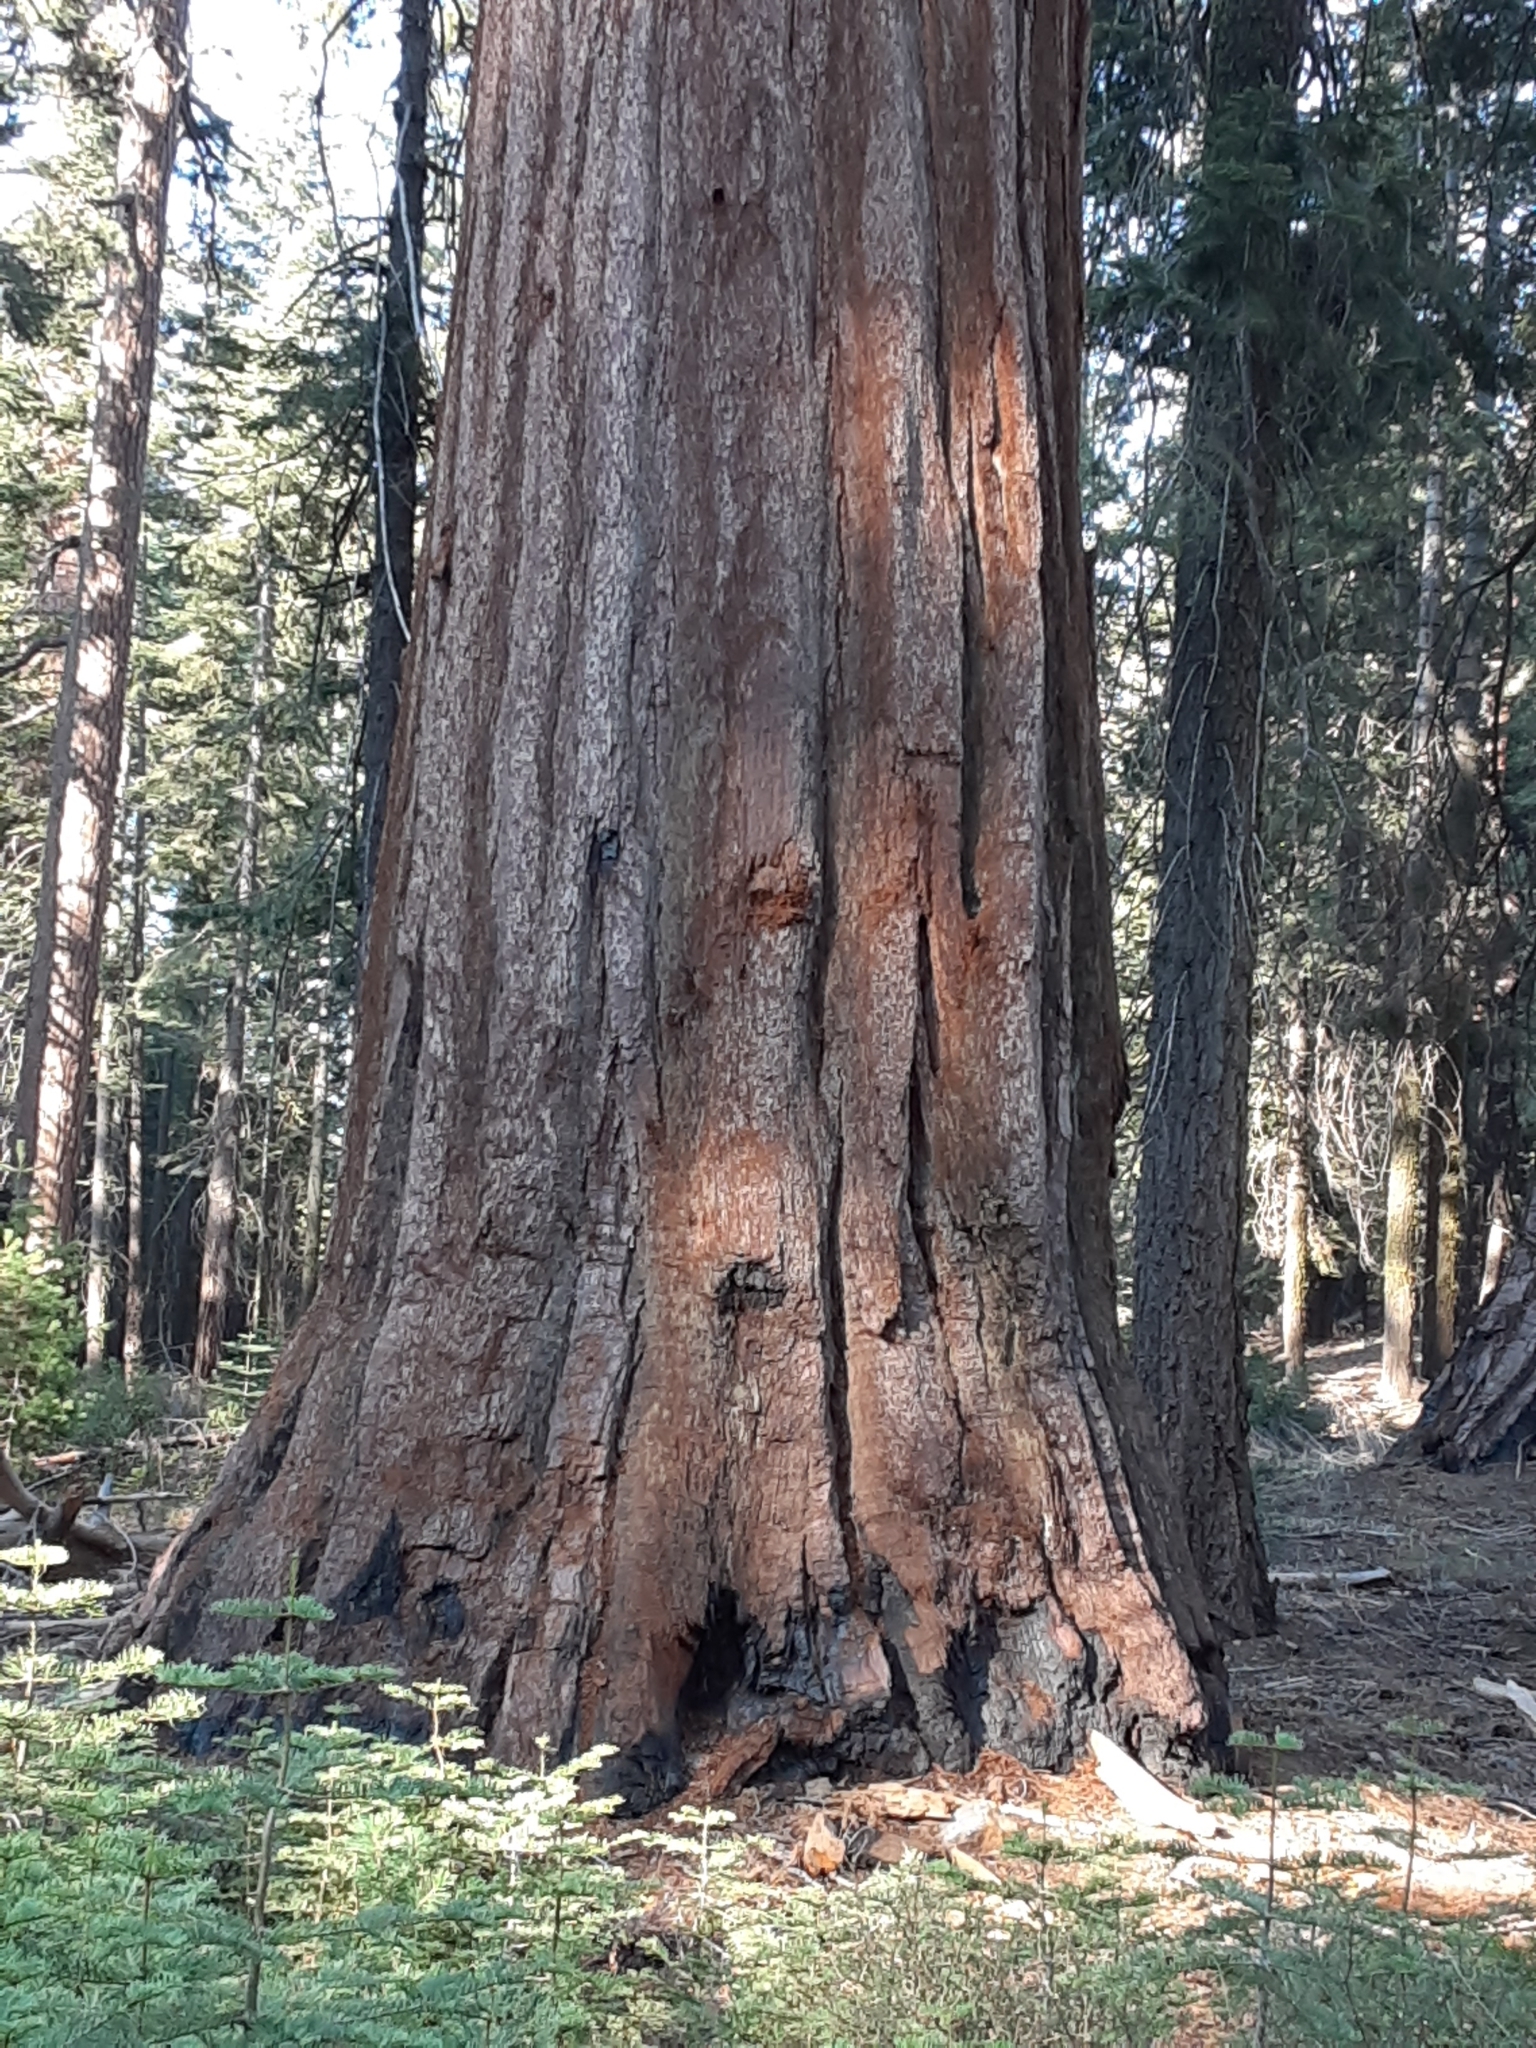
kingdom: Plantae
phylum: Tracheophyta
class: Pinopsida
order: Pinales
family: Cupressaceae
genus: Sequoiadendron
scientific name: Sequoiadendron giganteum
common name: Wellingtonia
